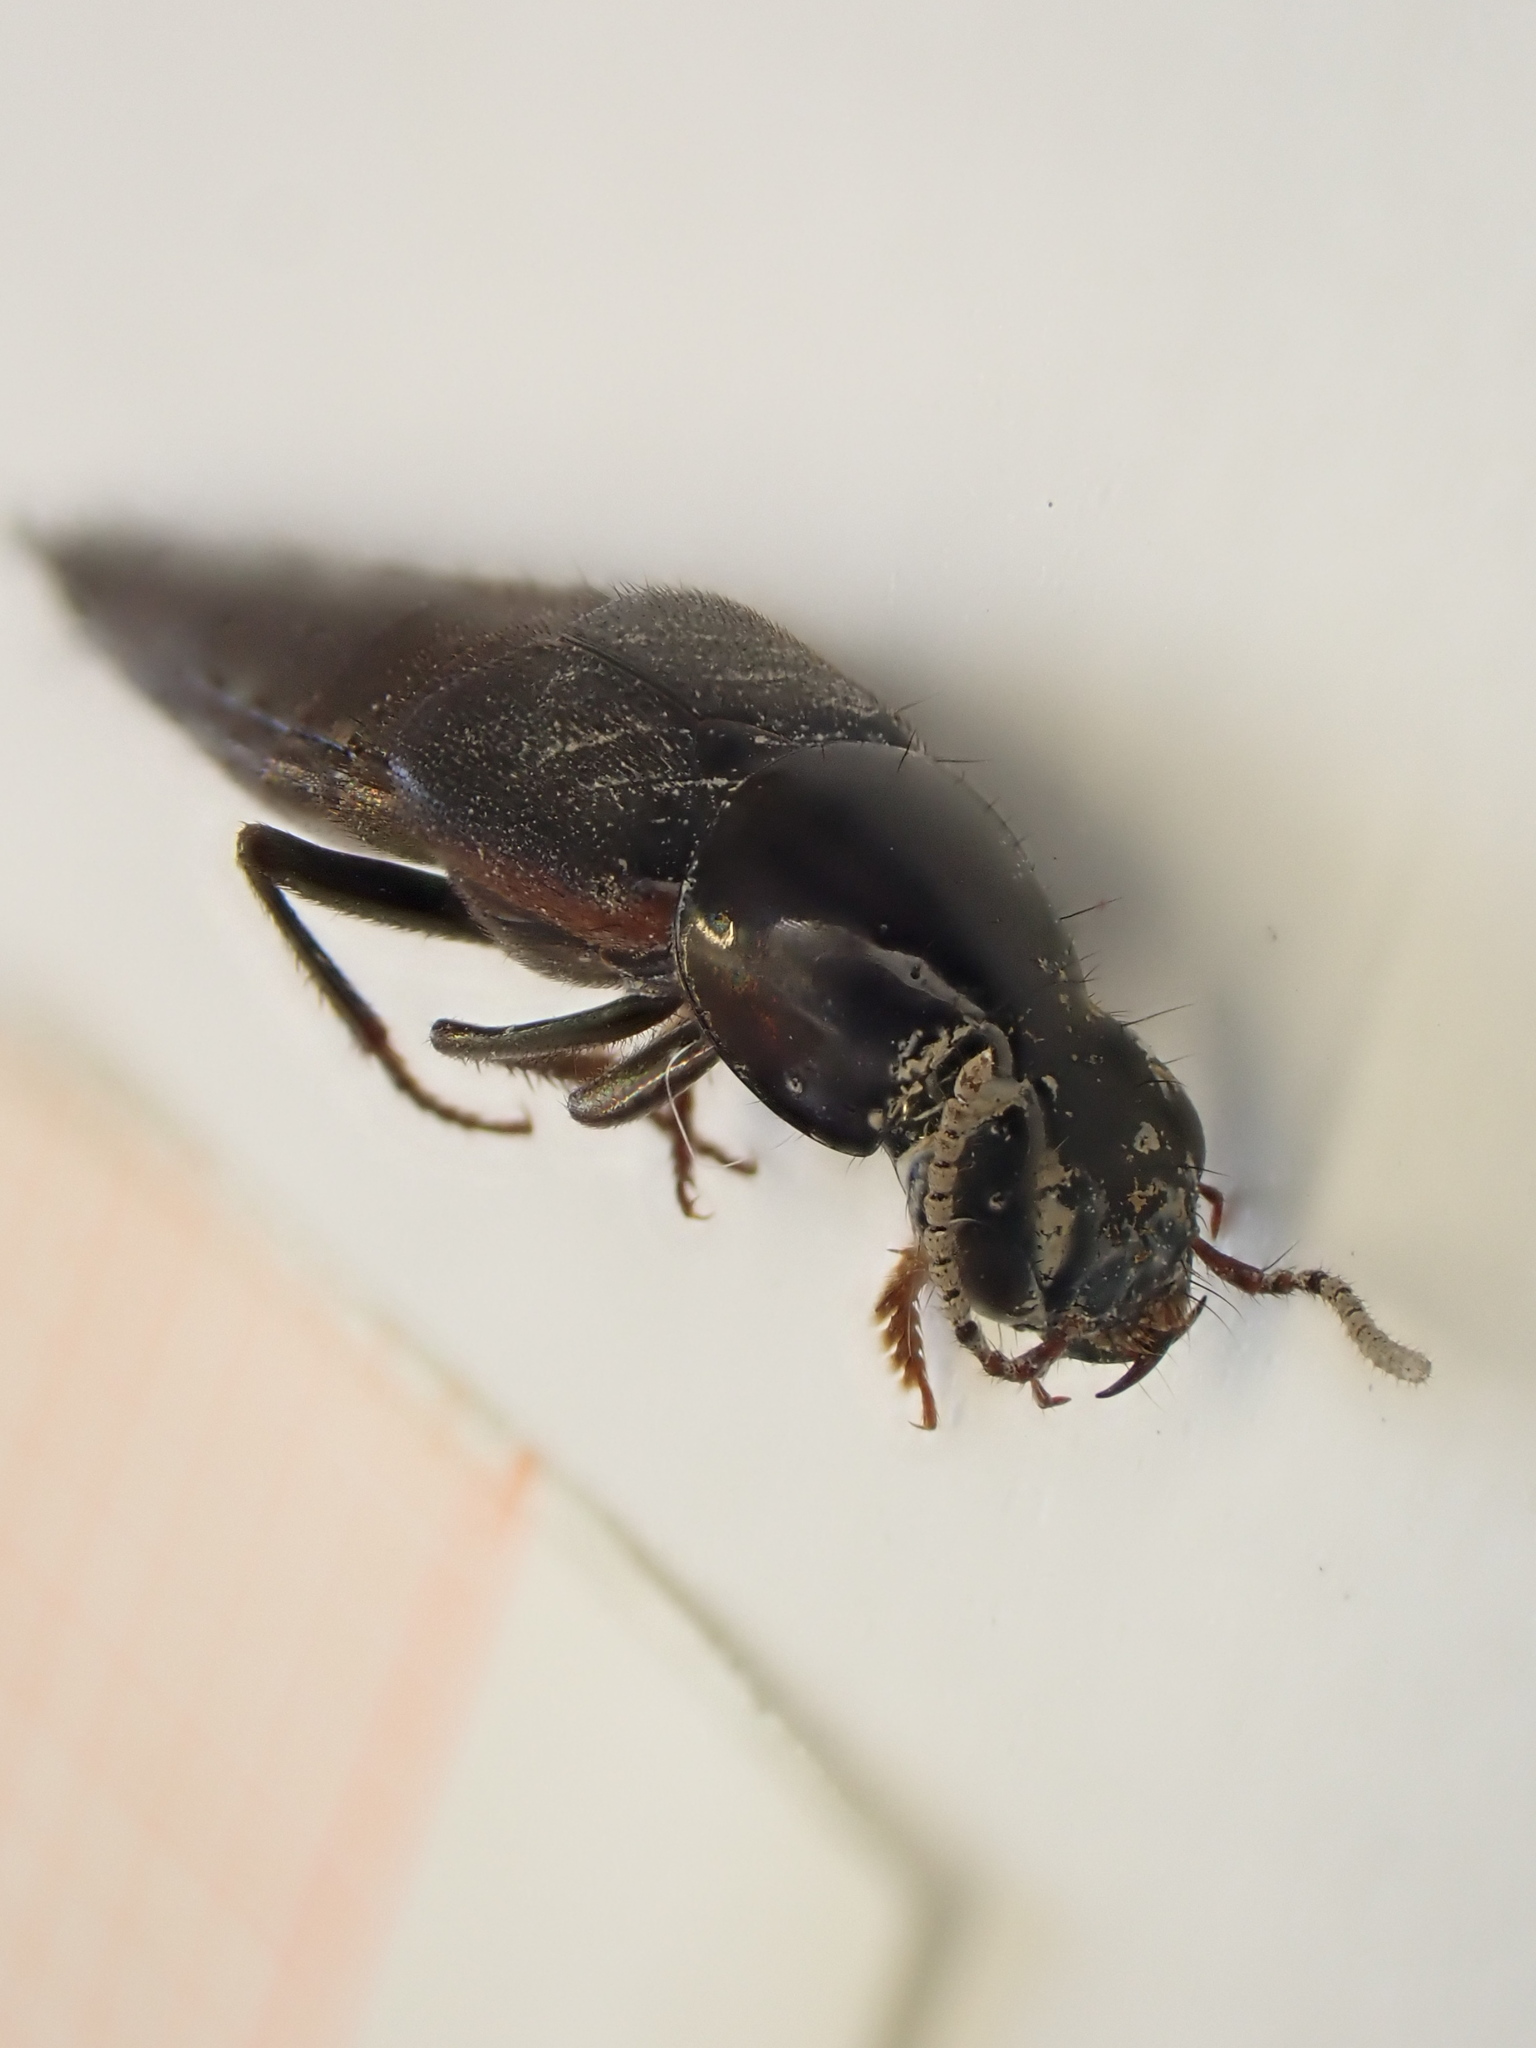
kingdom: Animalia
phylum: Arthropoda
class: Insecta
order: Coleoptera
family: Staphylinidae
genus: Quedius
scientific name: Quedius lateralis
